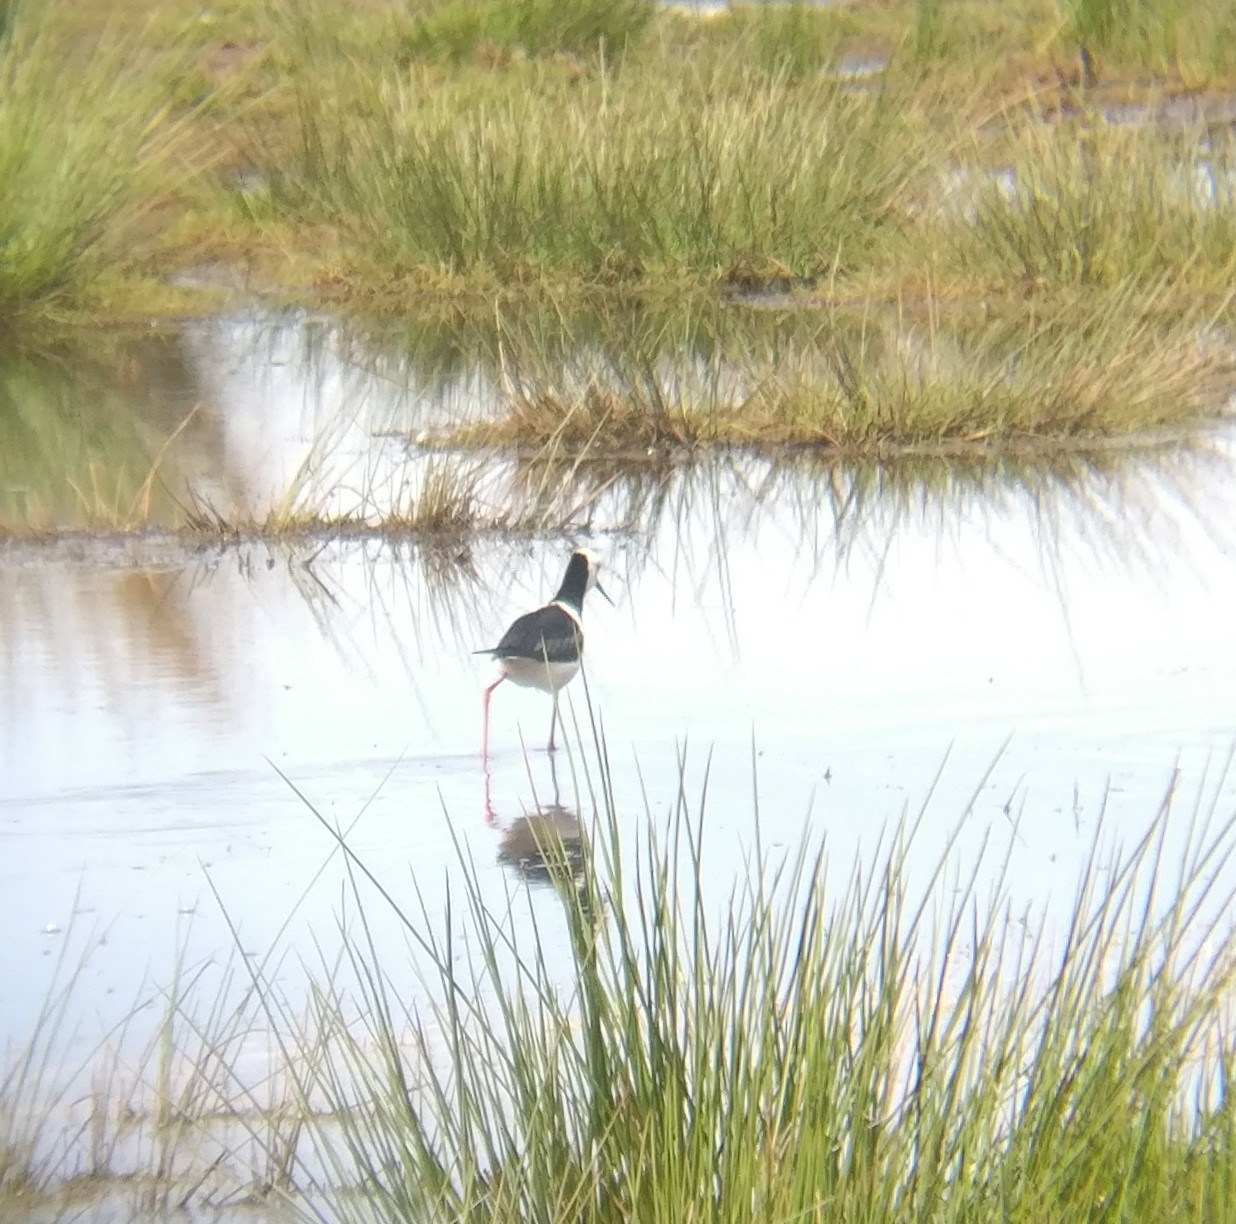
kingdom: Animalia
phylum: Chordata
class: Aves
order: Charadriiformes
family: Recurvirostridae
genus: Himantopus
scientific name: Himantopus leucocephalus
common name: White-headed stilt
